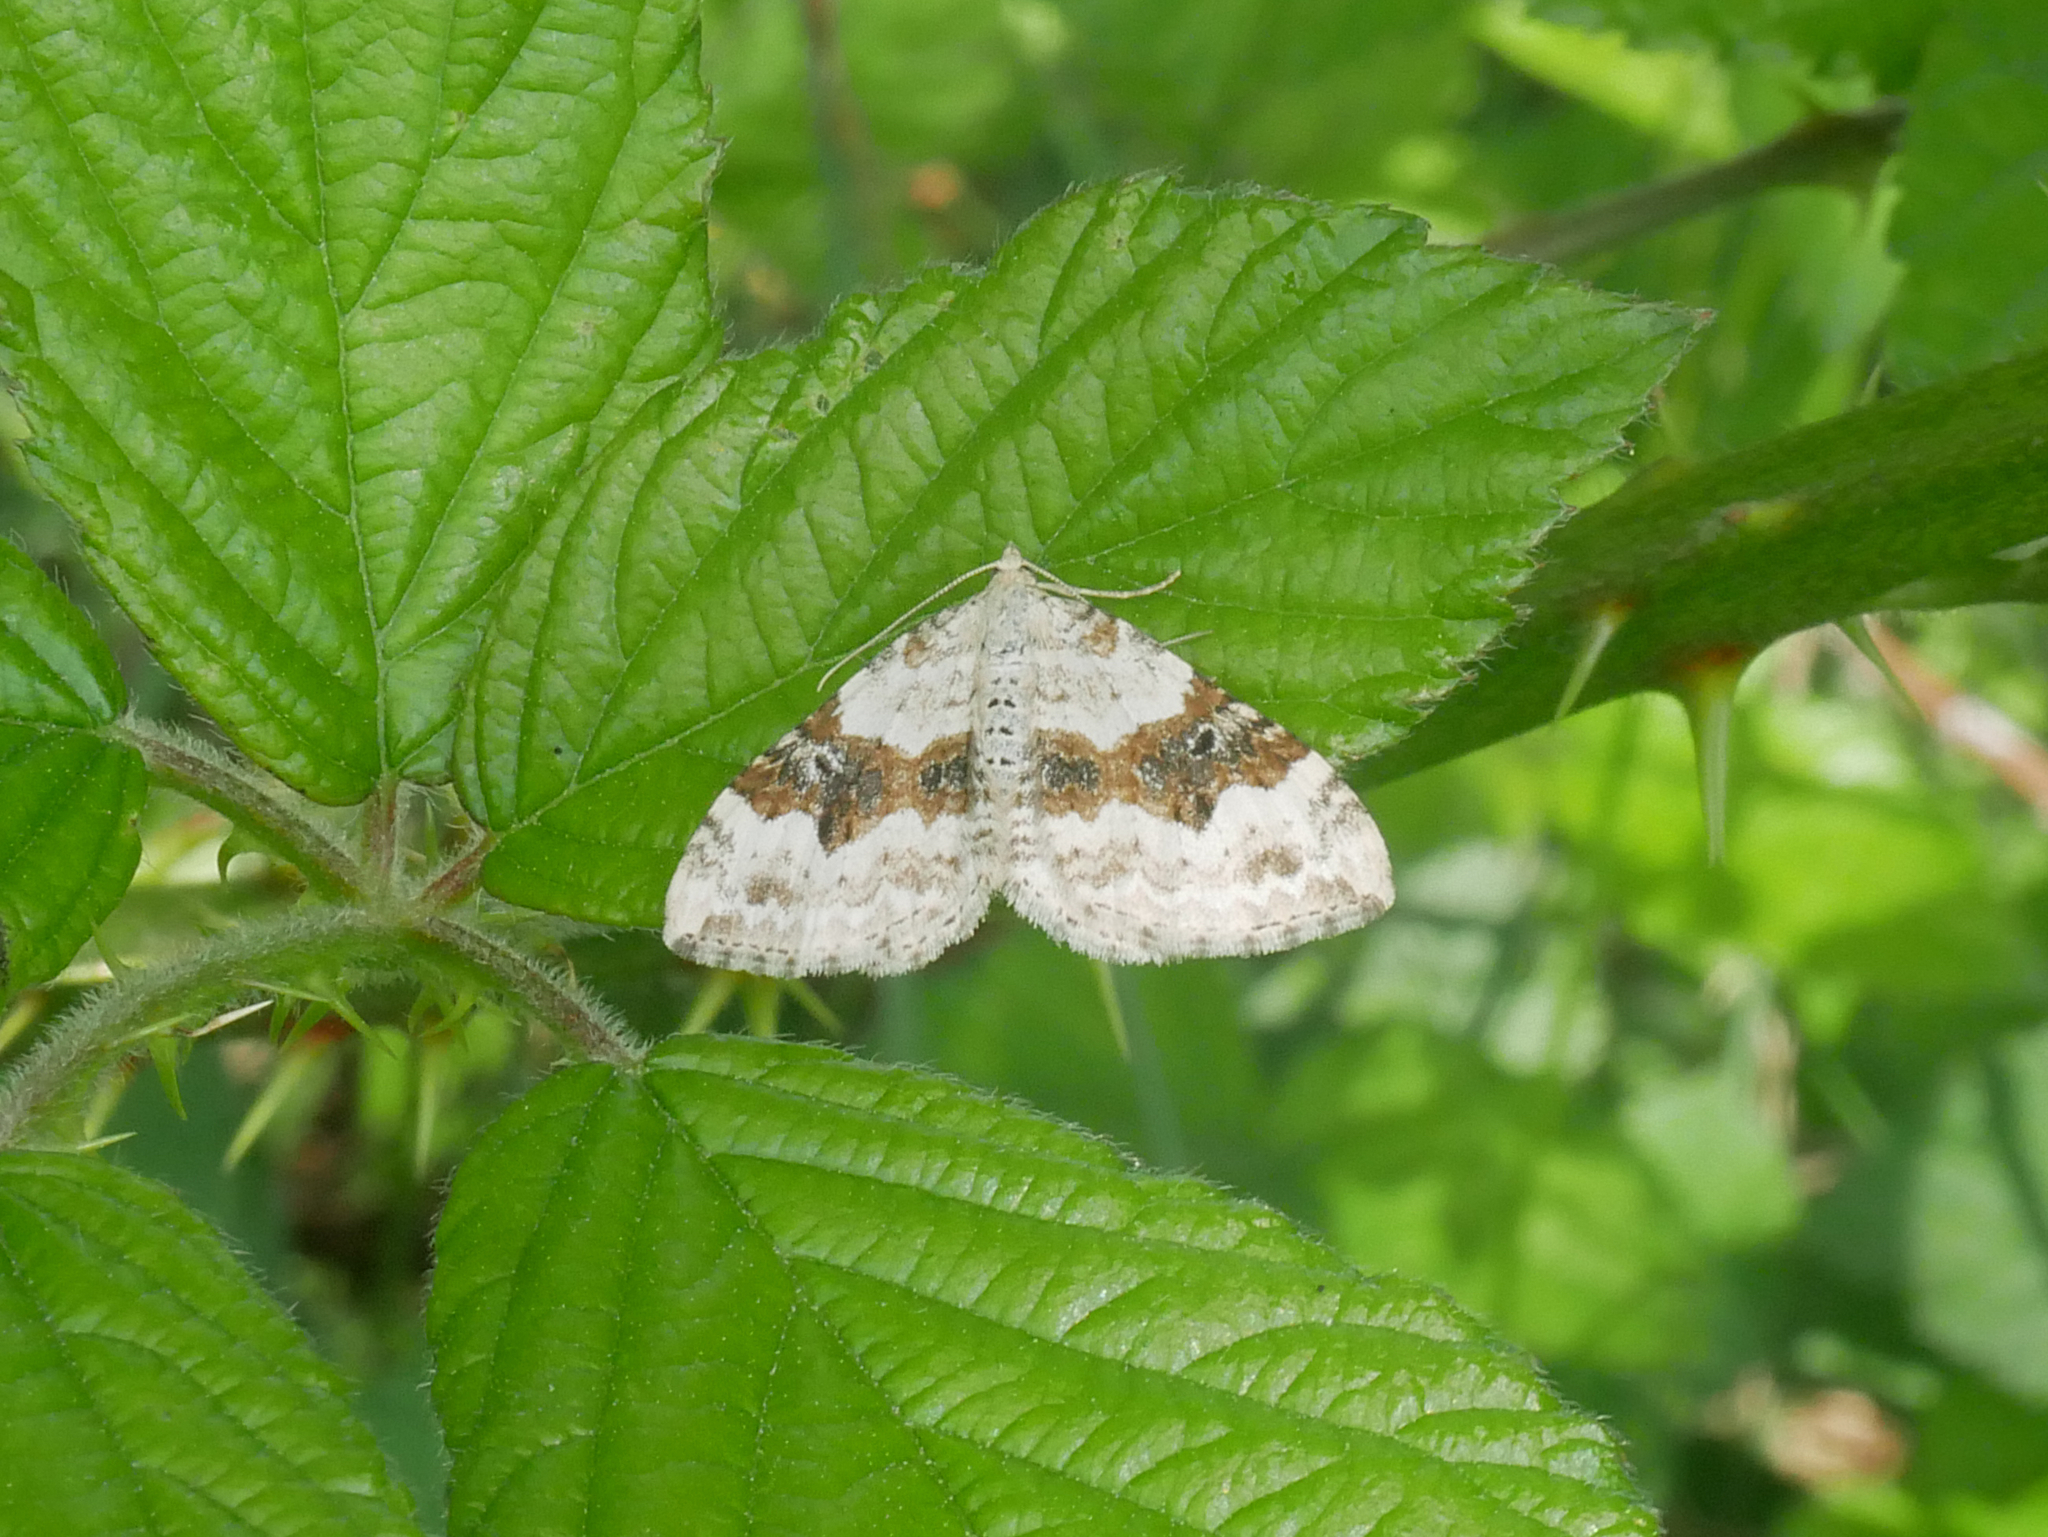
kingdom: Animalia
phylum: Arthropoda
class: Insecta
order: Lepidoptera
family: Geometridae
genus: Xanthorhoe
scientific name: Xanthorhoe montanata
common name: Silver-ground carpet
